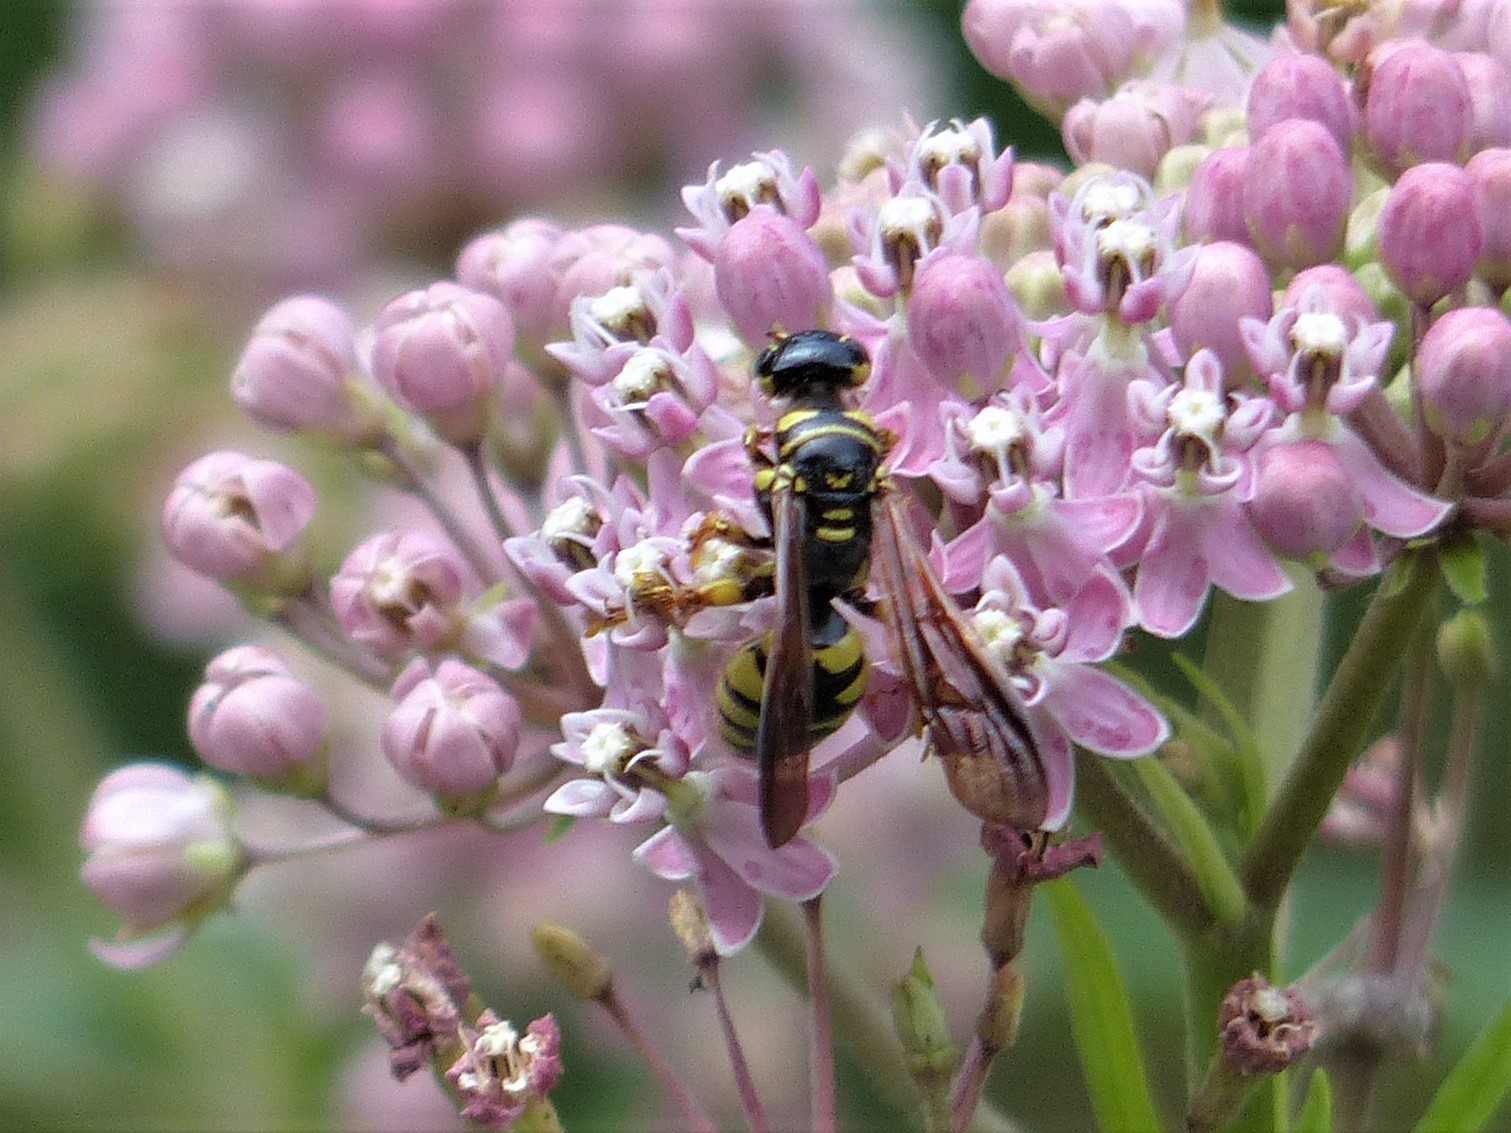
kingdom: Animalia
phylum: Arthropoda
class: Insecta
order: Hymenoptera
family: Tiphiidae
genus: Myzinum
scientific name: Myzinum quinquecinctum
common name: Five-banded thynnid wasp
